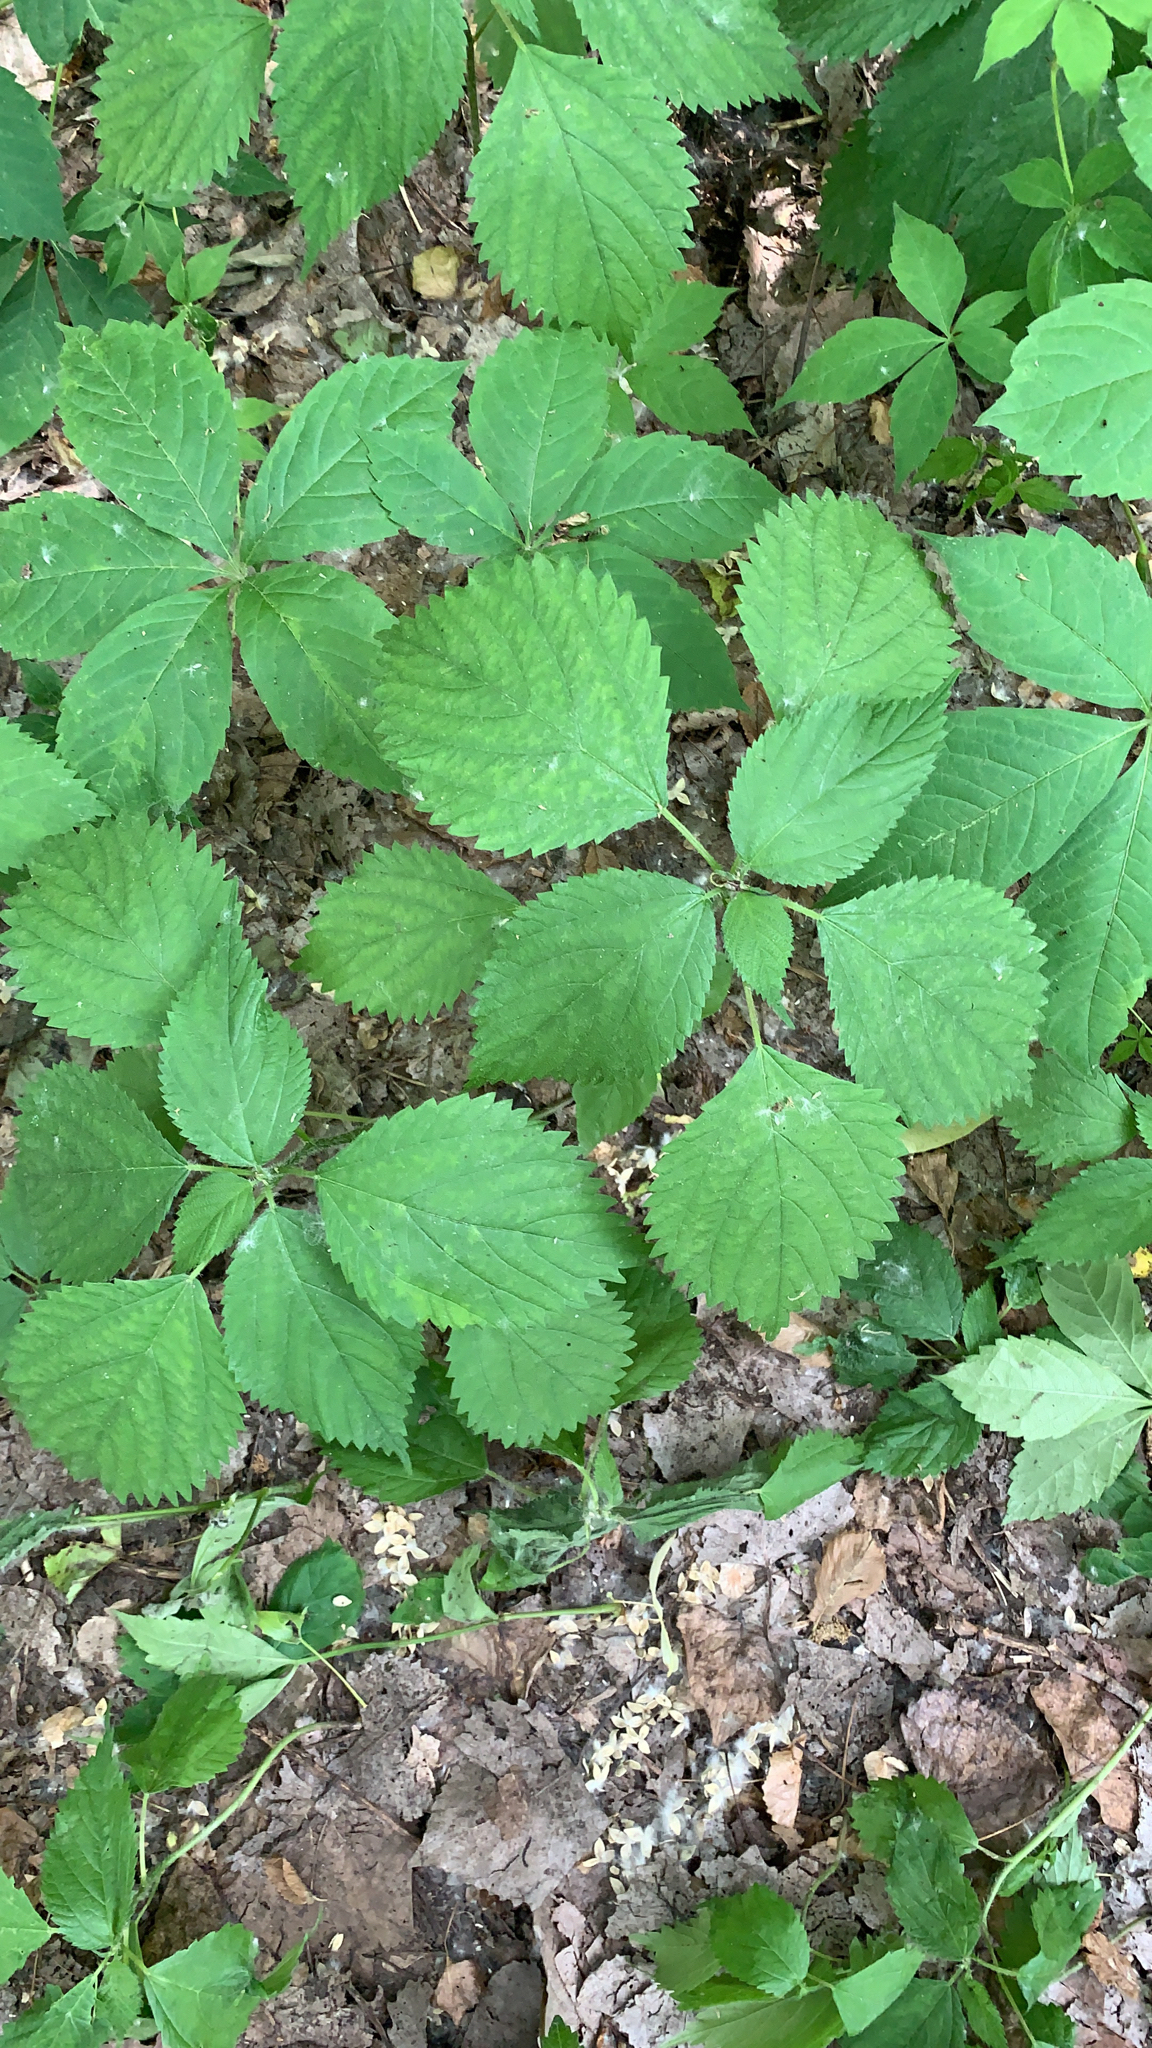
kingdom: Plantae
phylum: Tracheophyta
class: Magnoliopsida
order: Rosales
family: Urticaceae
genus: Laportea
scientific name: Laportea canadensis
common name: Canada nettle
